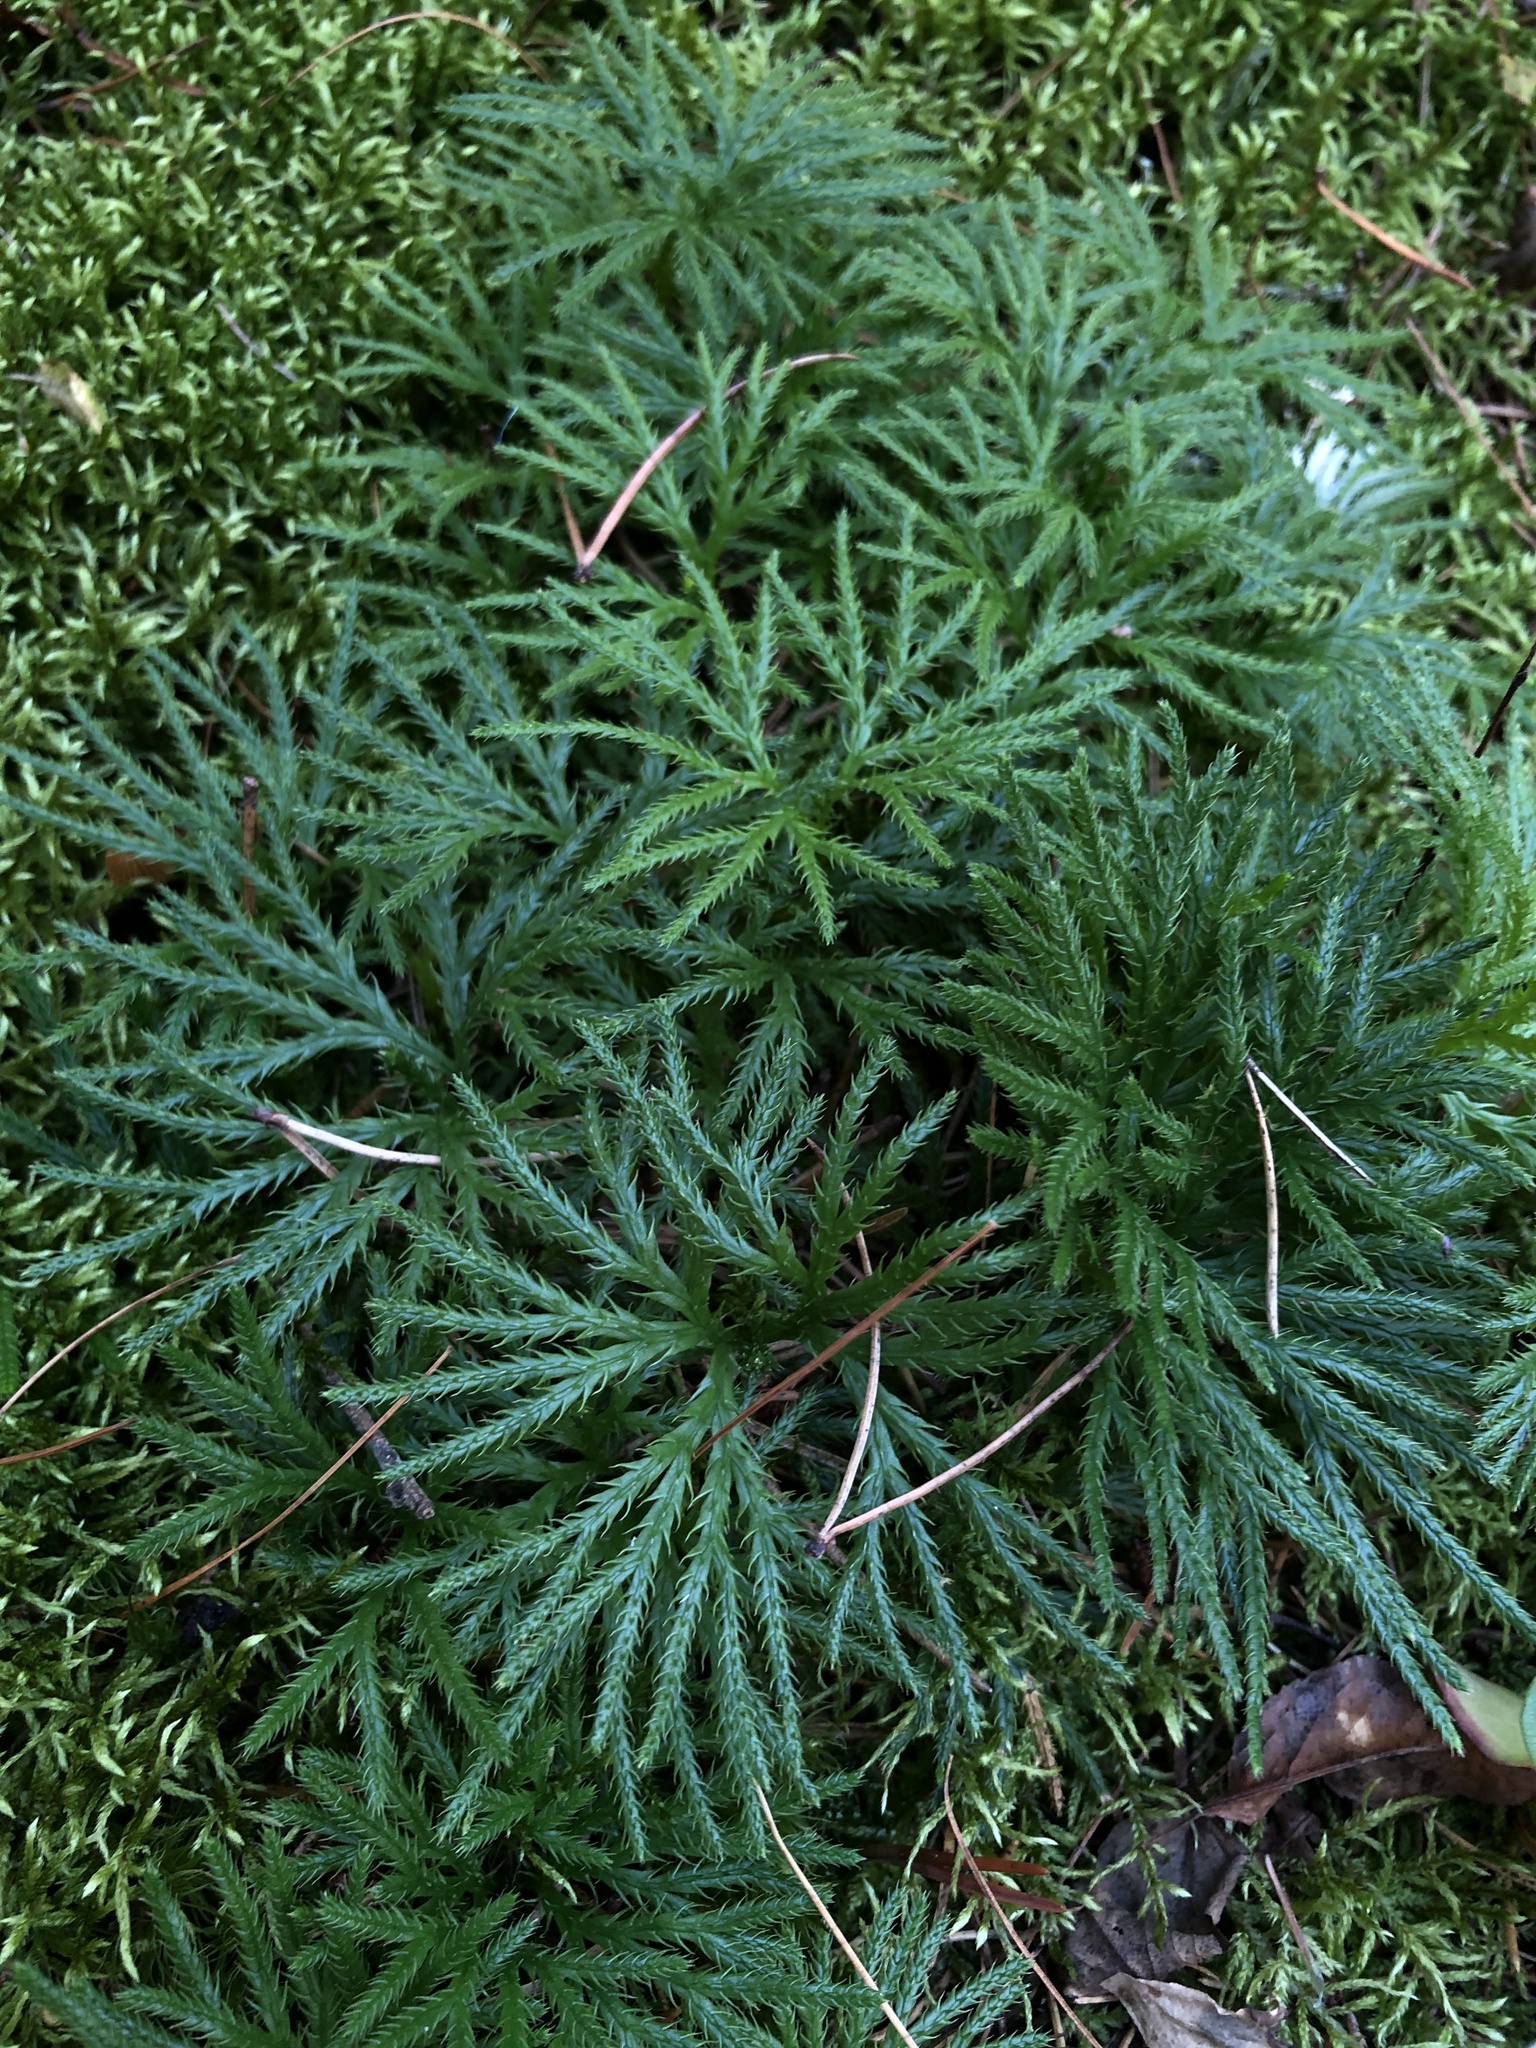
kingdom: Plantae
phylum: Tracheophyta
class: Lycopodiopsida
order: Lycopodiales
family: Lycopodiaceae
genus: Diphasiastrum
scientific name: Diphasiastrum digitatum
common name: Southern running-pine
